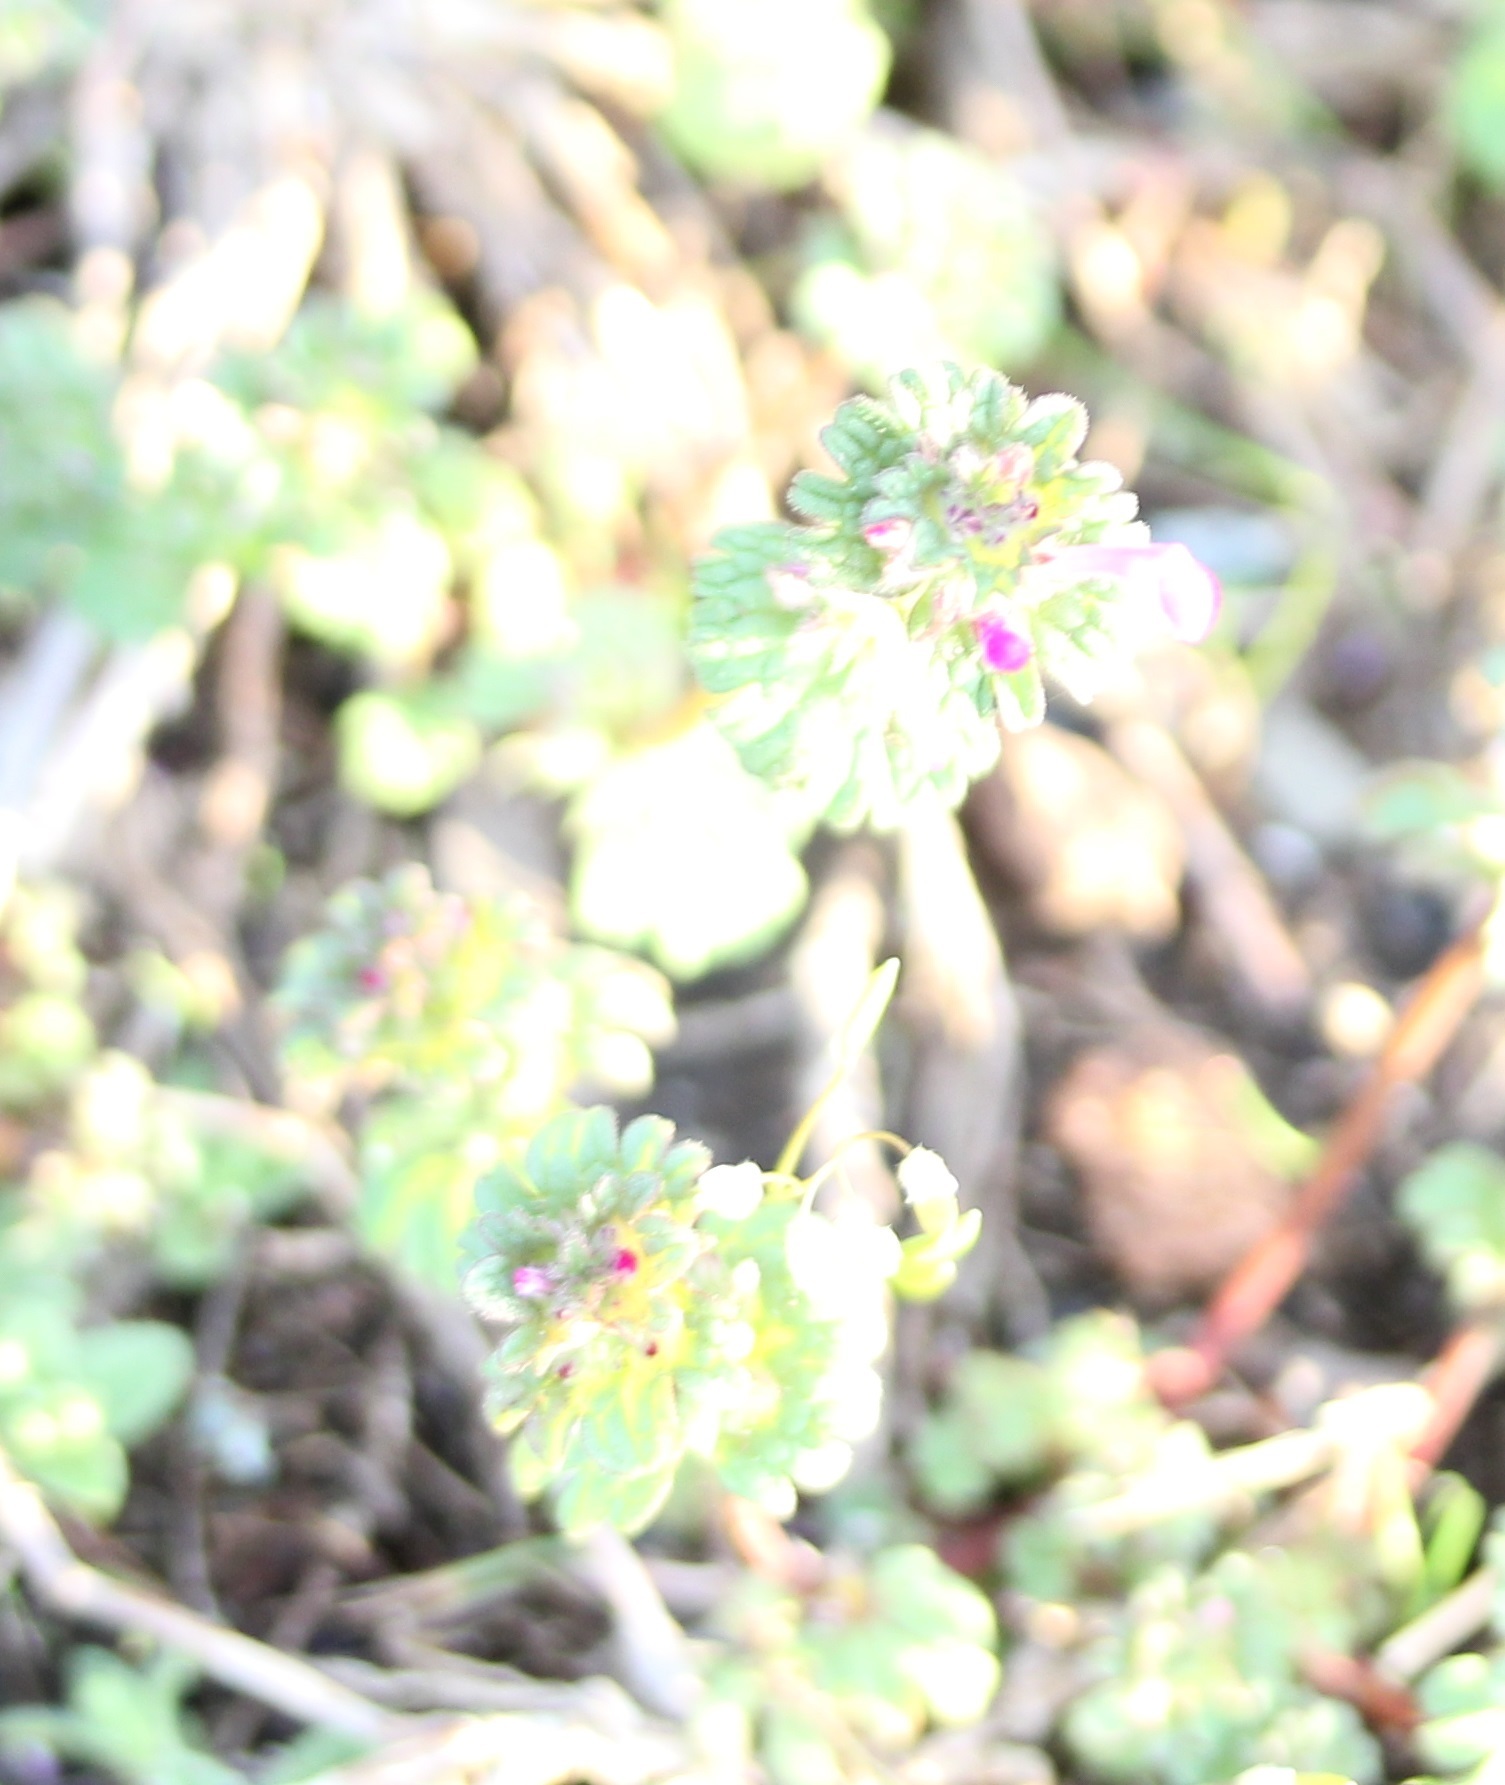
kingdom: Plantae
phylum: Tracheophyta
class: Magnoliopsida
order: Lamiales
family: Lamiaceae
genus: Lamium
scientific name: Lamium amplexicaule
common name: Henbit dead-nettle
